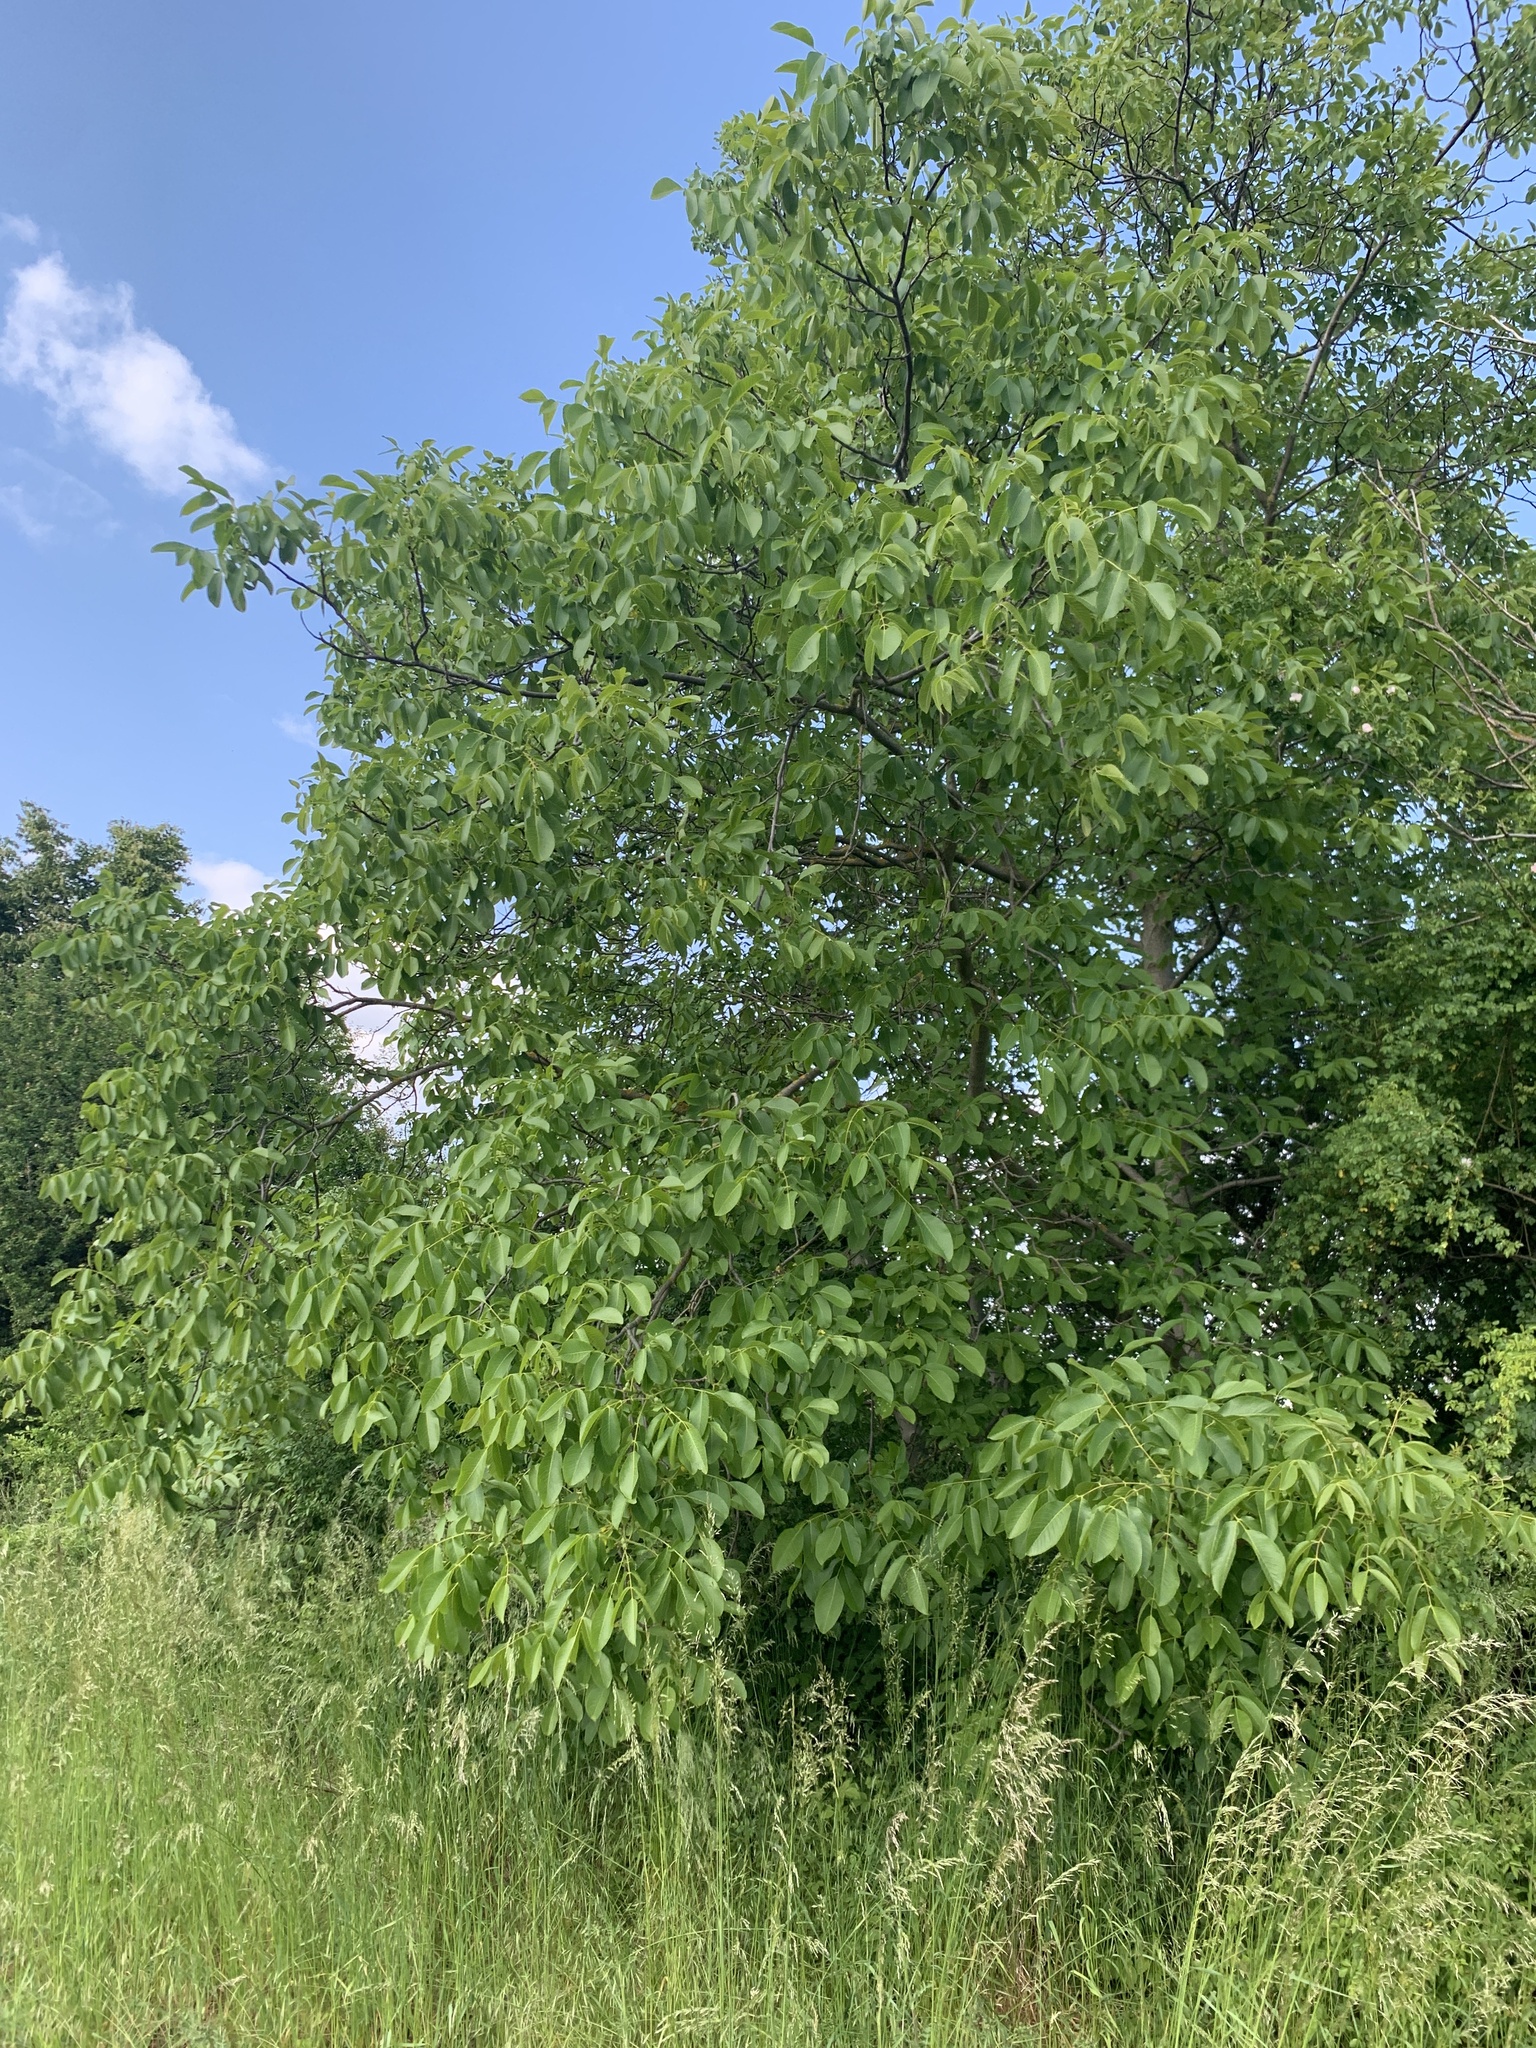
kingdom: Plantae
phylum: Tracheophyta
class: Magnoliopsida
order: Fagales
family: Juglandaceae
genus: Juglans
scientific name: Juglans regia
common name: Walnut
